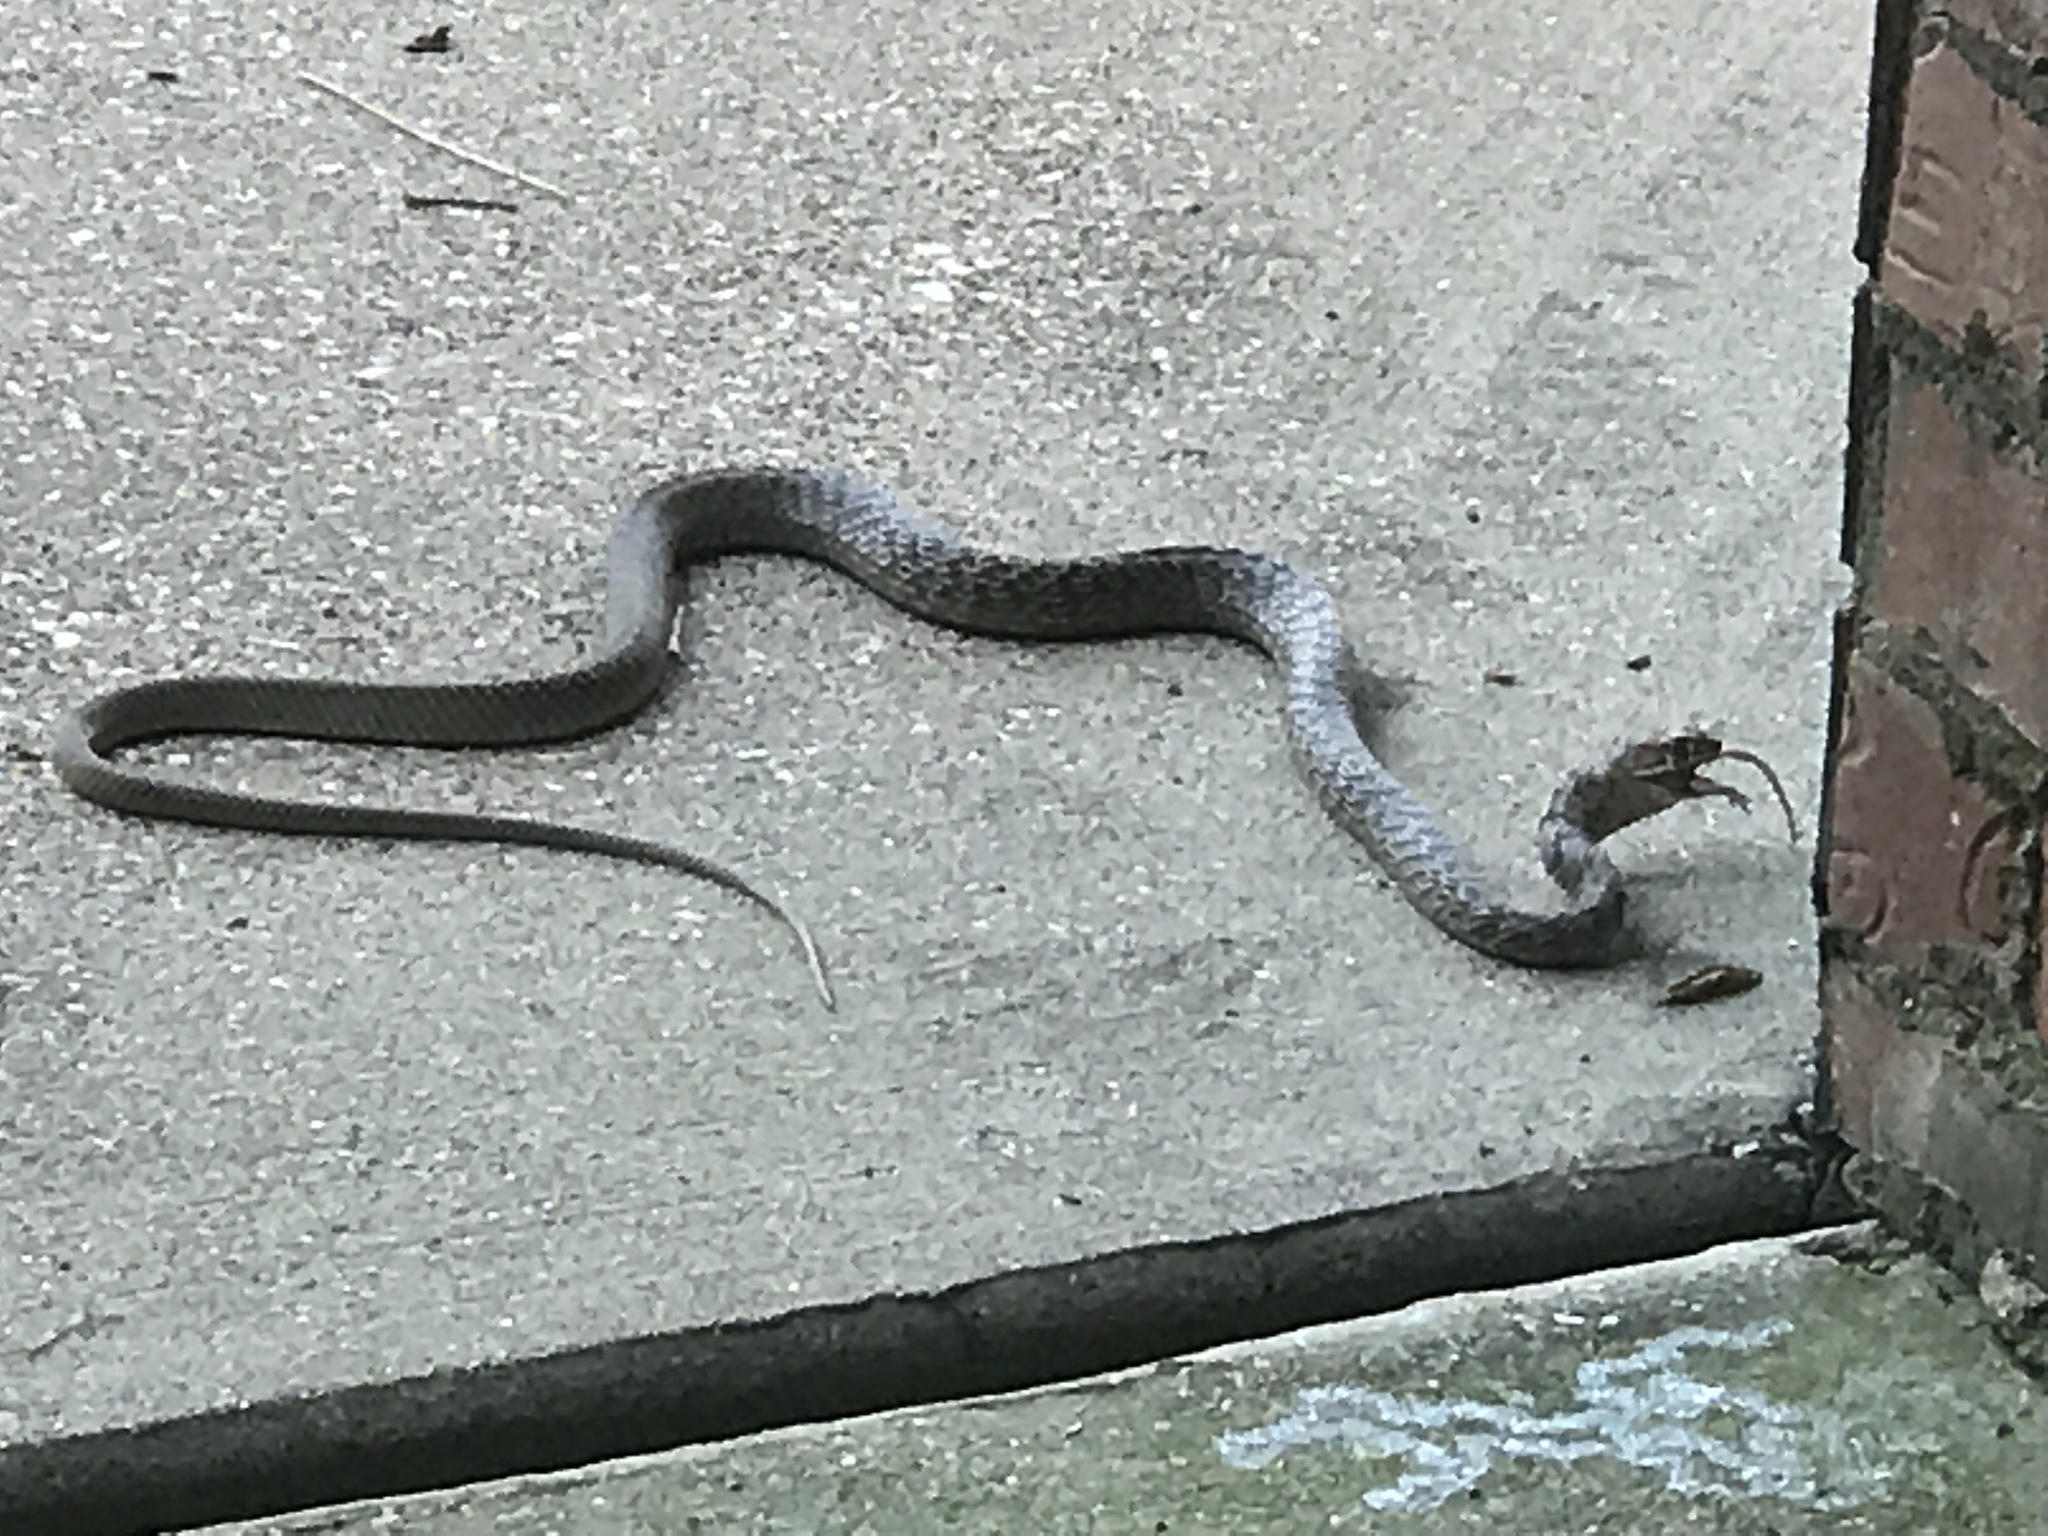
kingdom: Animalia
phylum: Chordata
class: Squamata
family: Colubridae
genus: Masticophis
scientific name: Masticophis flagellum
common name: Coachwhip
